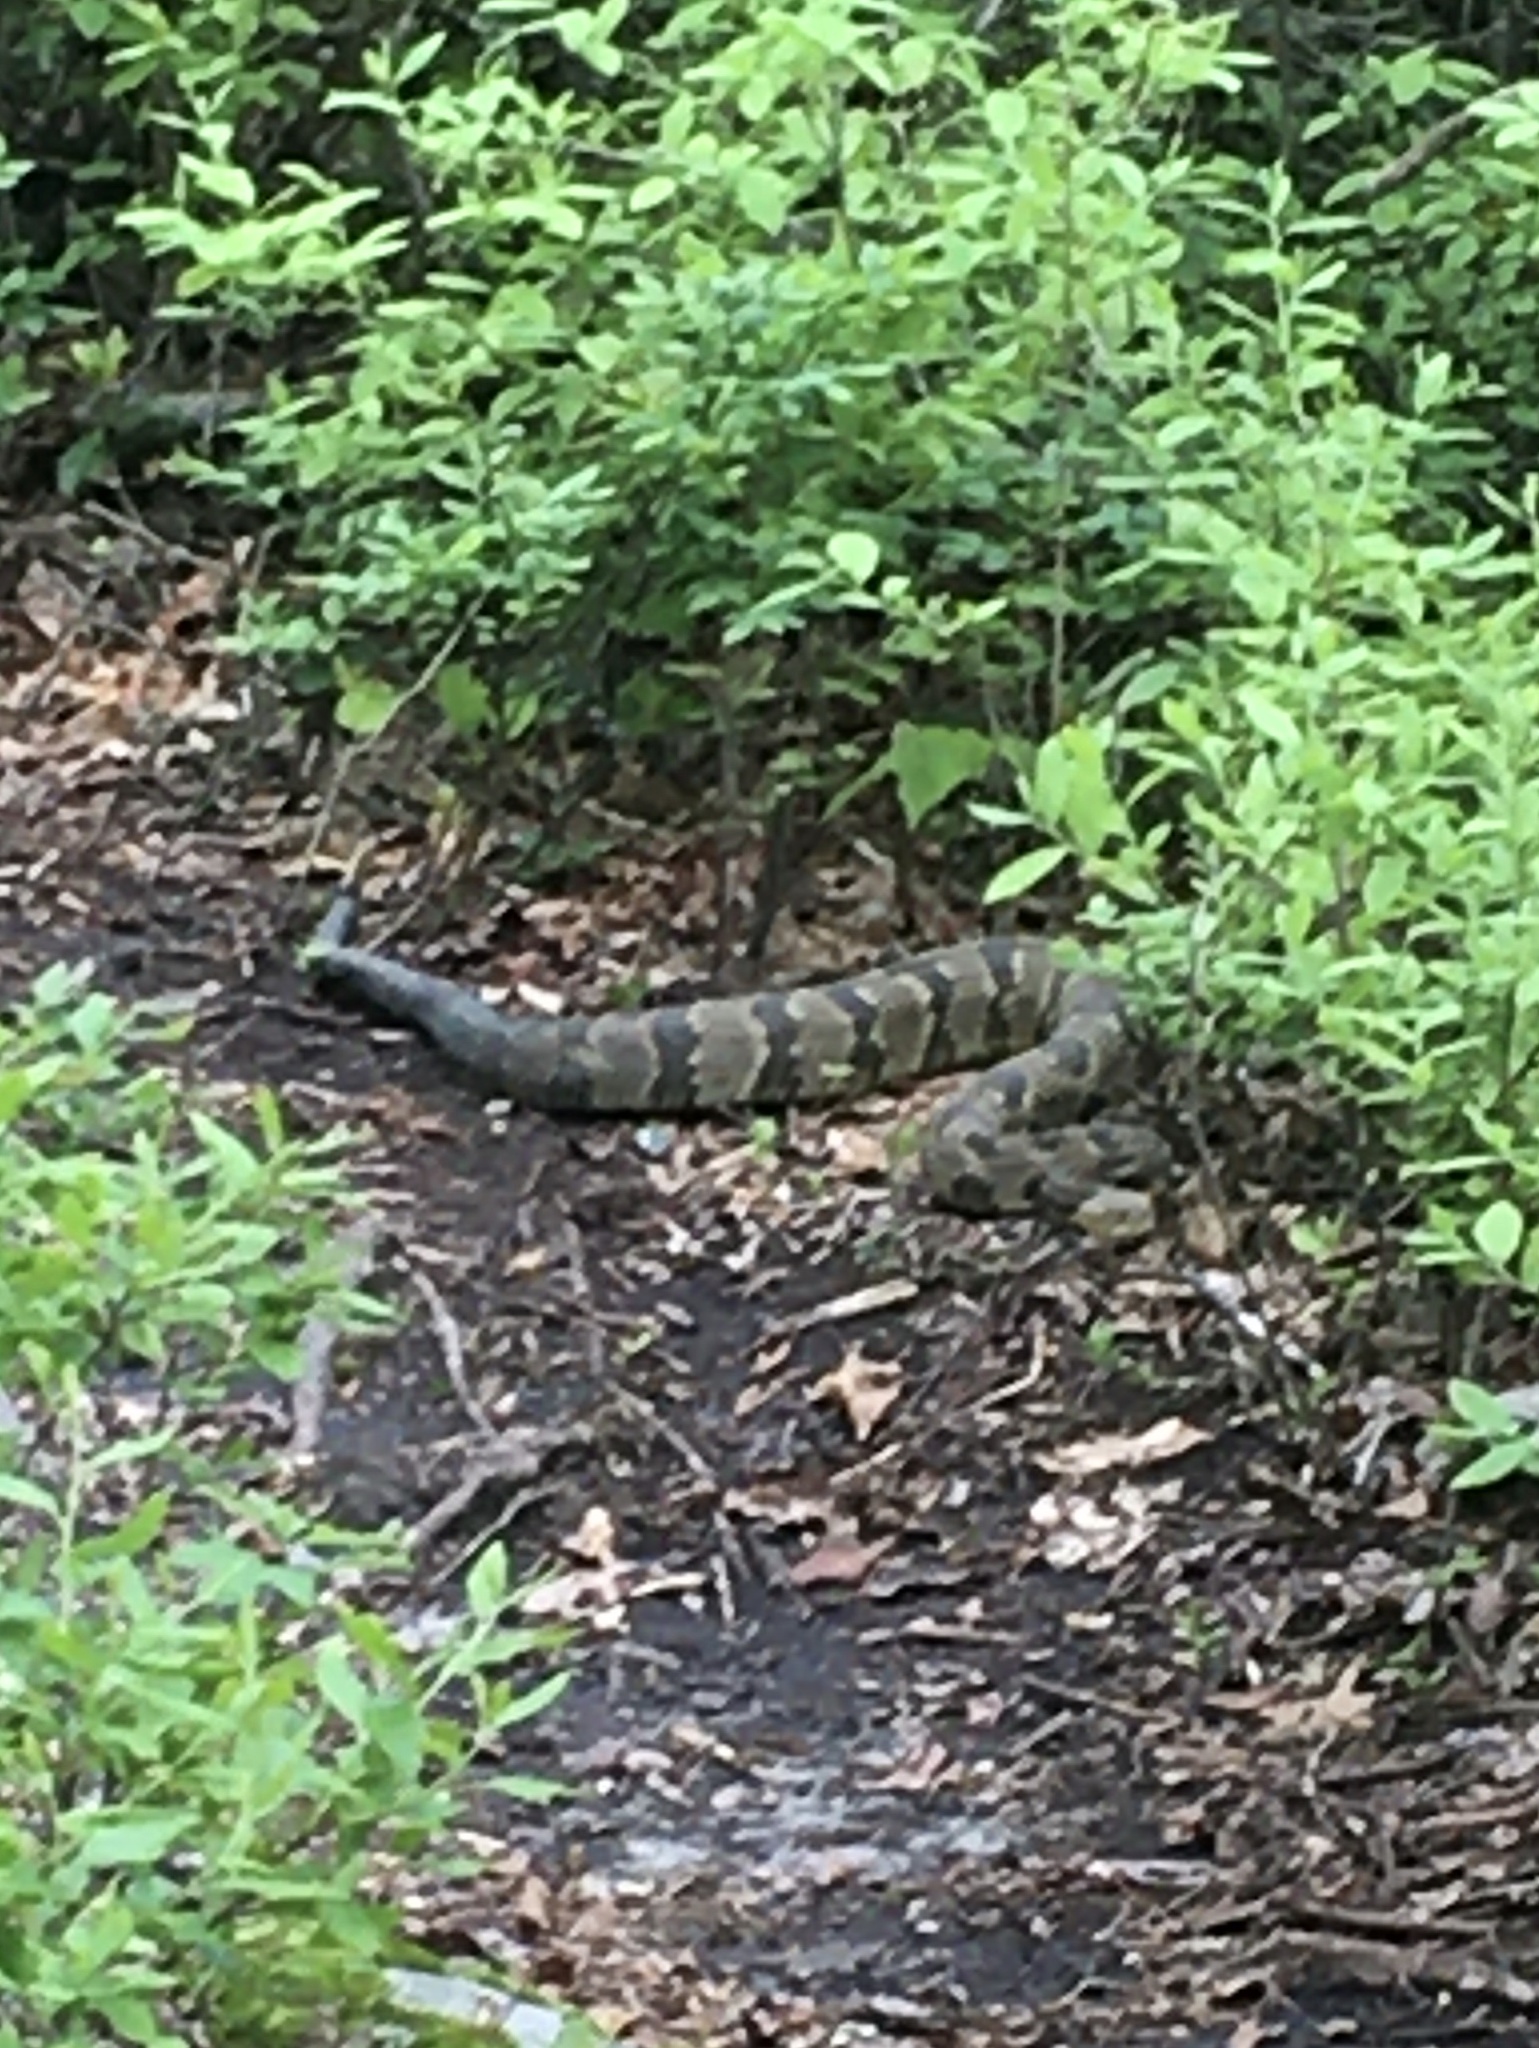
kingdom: Animalia
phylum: Chordata
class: Squamata
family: Viperidae
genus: Crotalus
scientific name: Crotalus horridus
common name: Timber rattlesnake
